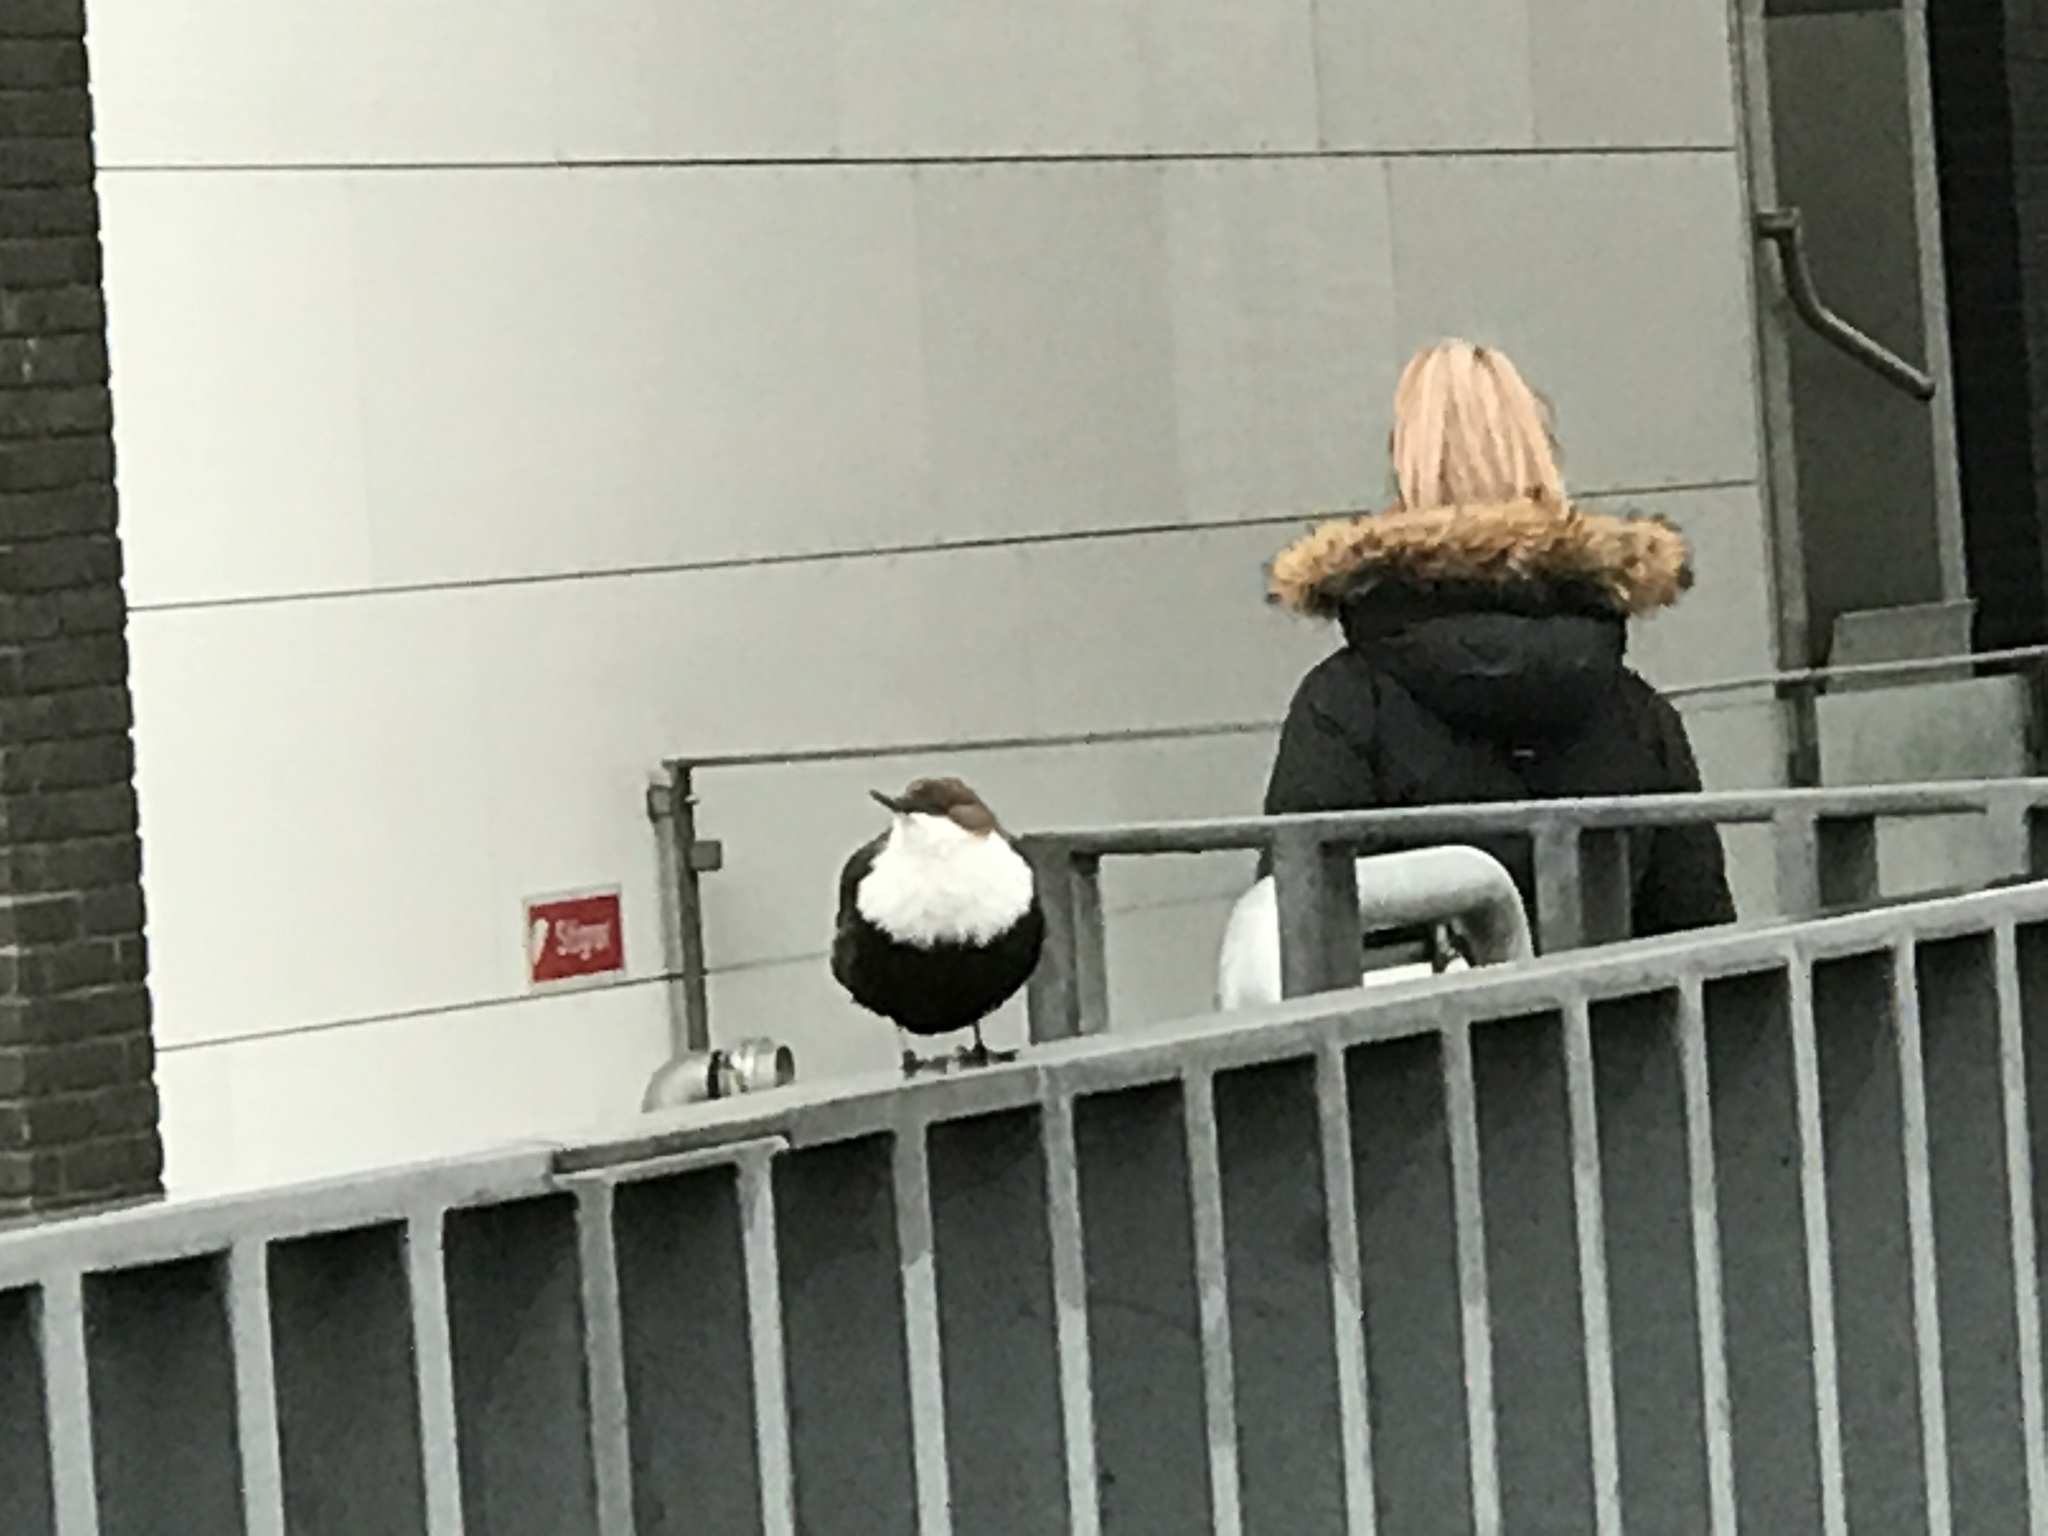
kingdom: Animalia
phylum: Chordata
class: Aves
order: Passeriformes
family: Cinclidae
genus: Cinclus
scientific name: Cinclus cinclus
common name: White-throated dipper
